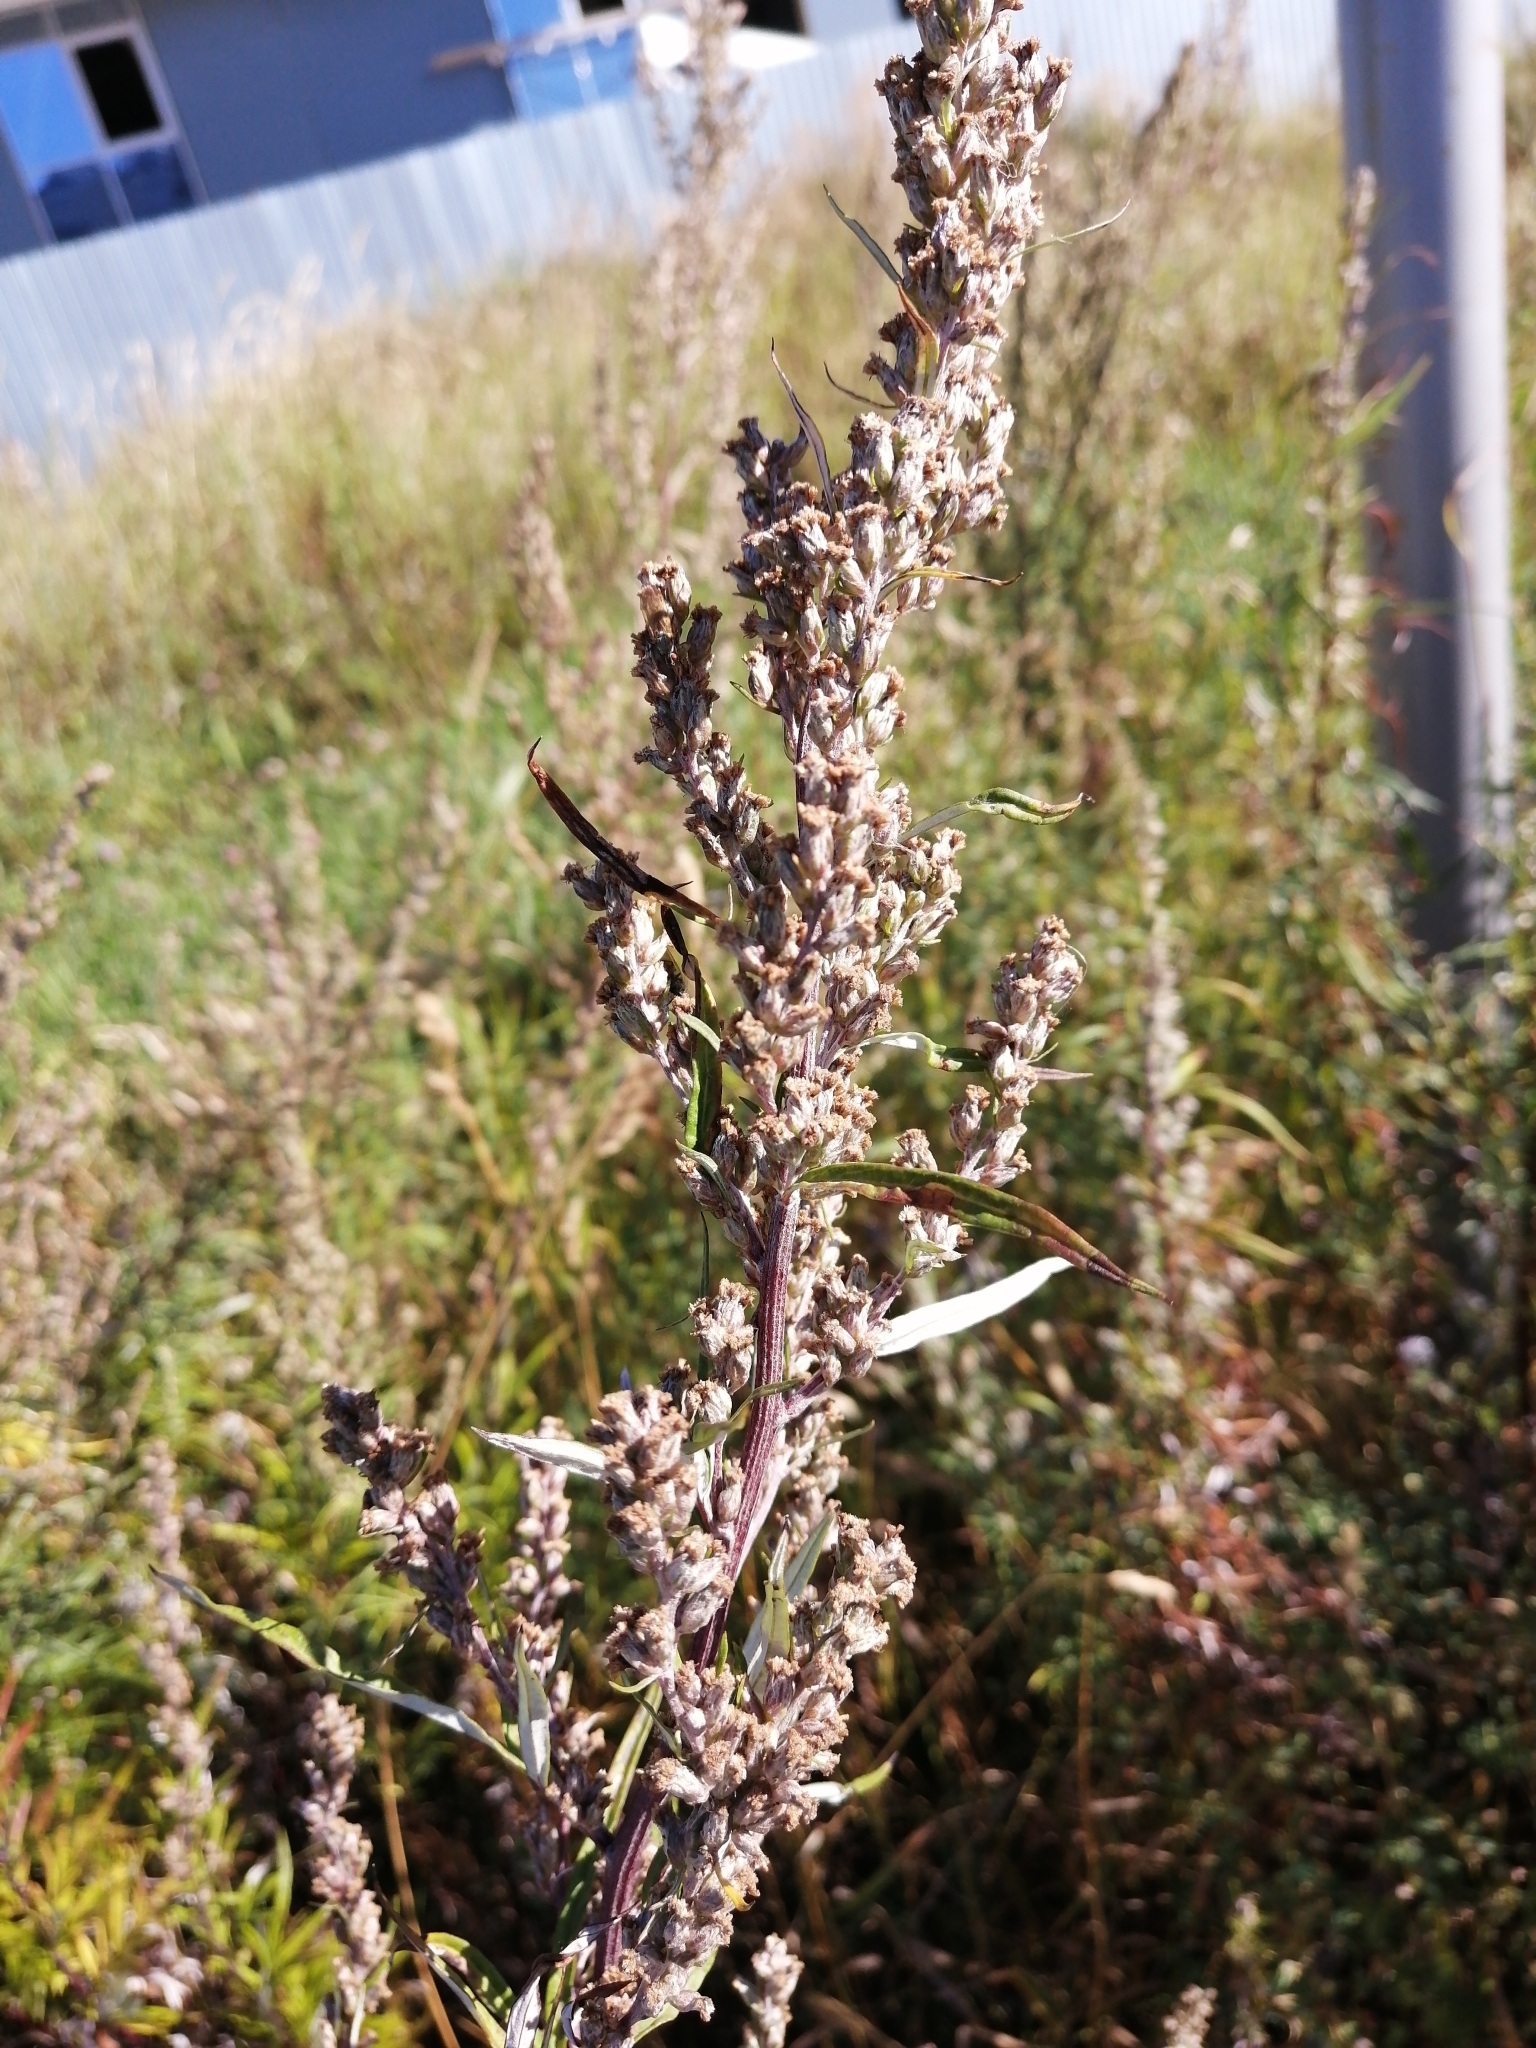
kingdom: Plantae
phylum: Tracheophyta
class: Magnoliopsida
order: Asterales
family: Asteraceae
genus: Artemisia
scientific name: Artemisia vulgaris
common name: Mugwort
